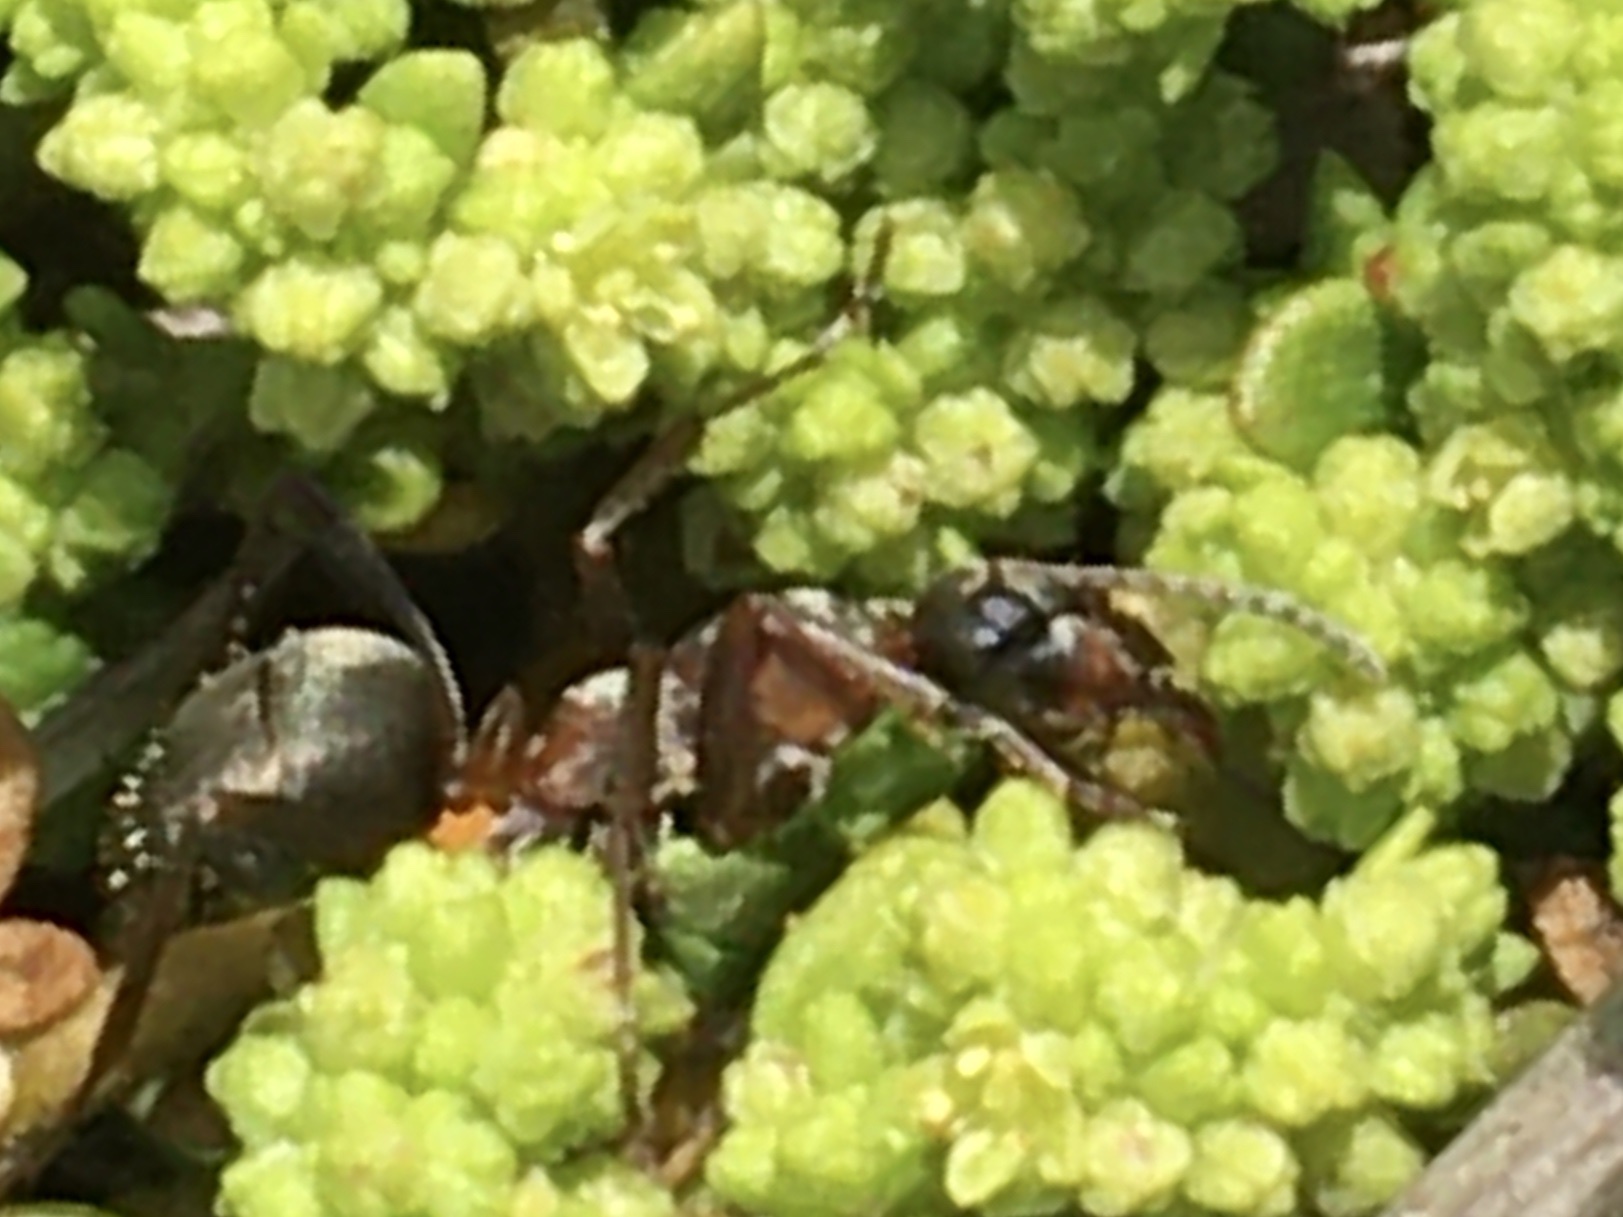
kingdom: Animalia
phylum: Arthropoda
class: Insecta
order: Hymenoptera
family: Formicidae
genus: Formica
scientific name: Formica
